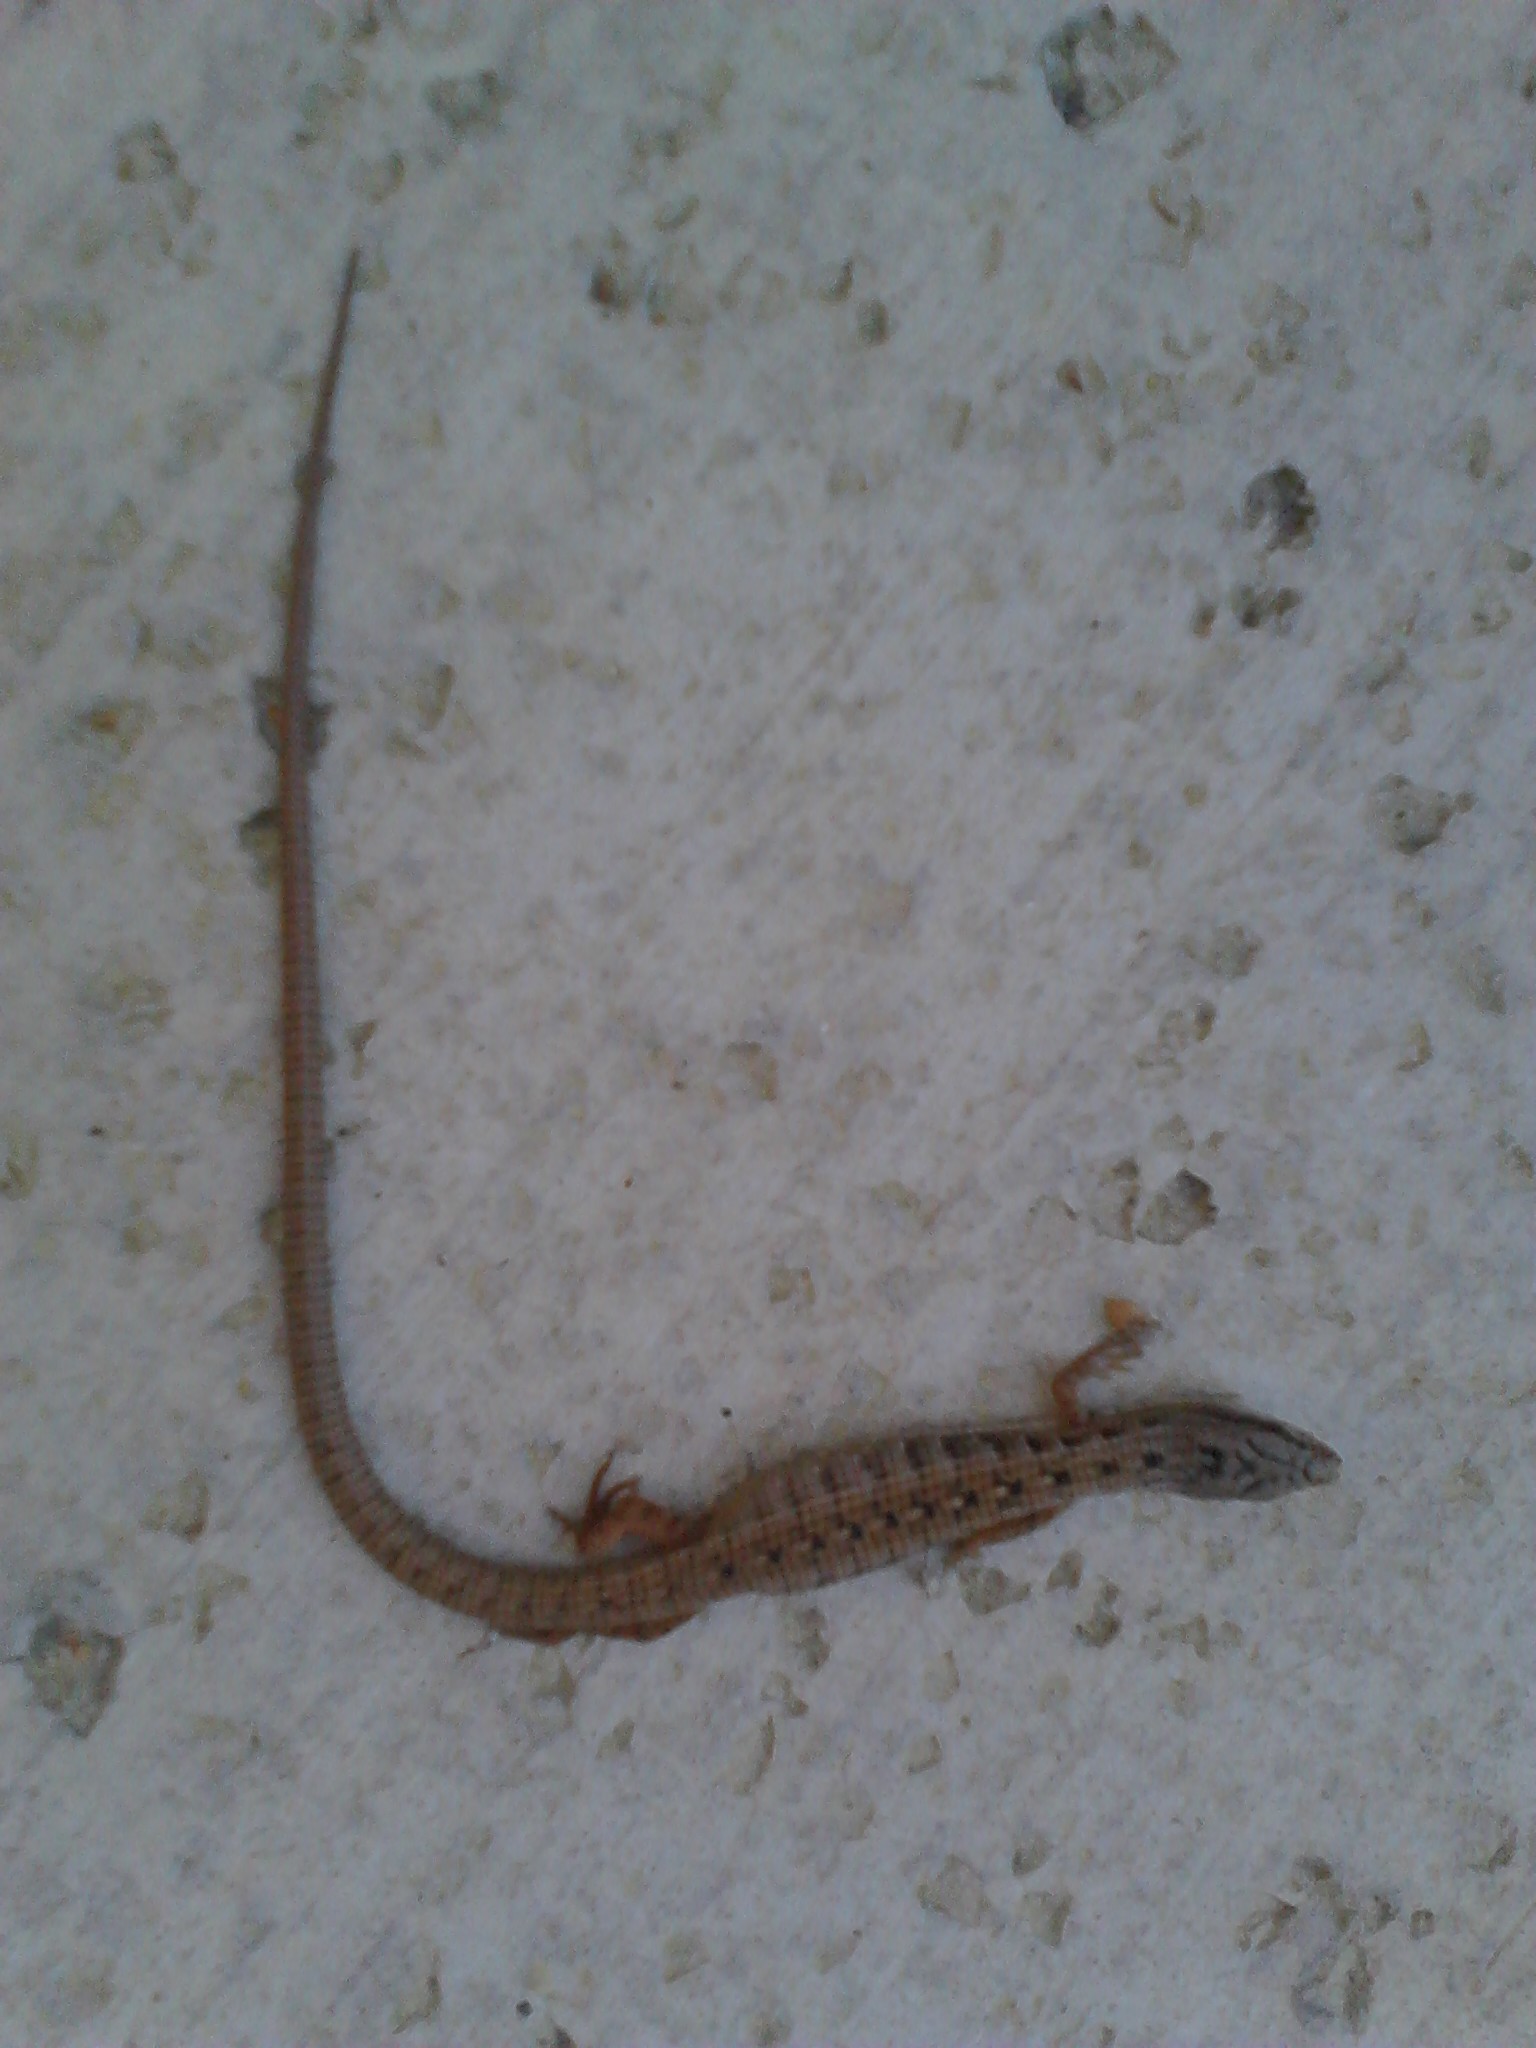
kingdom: Animalia
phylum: Chordata
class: Squamata
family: Anguidae
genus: Elgaria
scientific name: Elgaria multicarinata
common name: Southern alligator lizard
